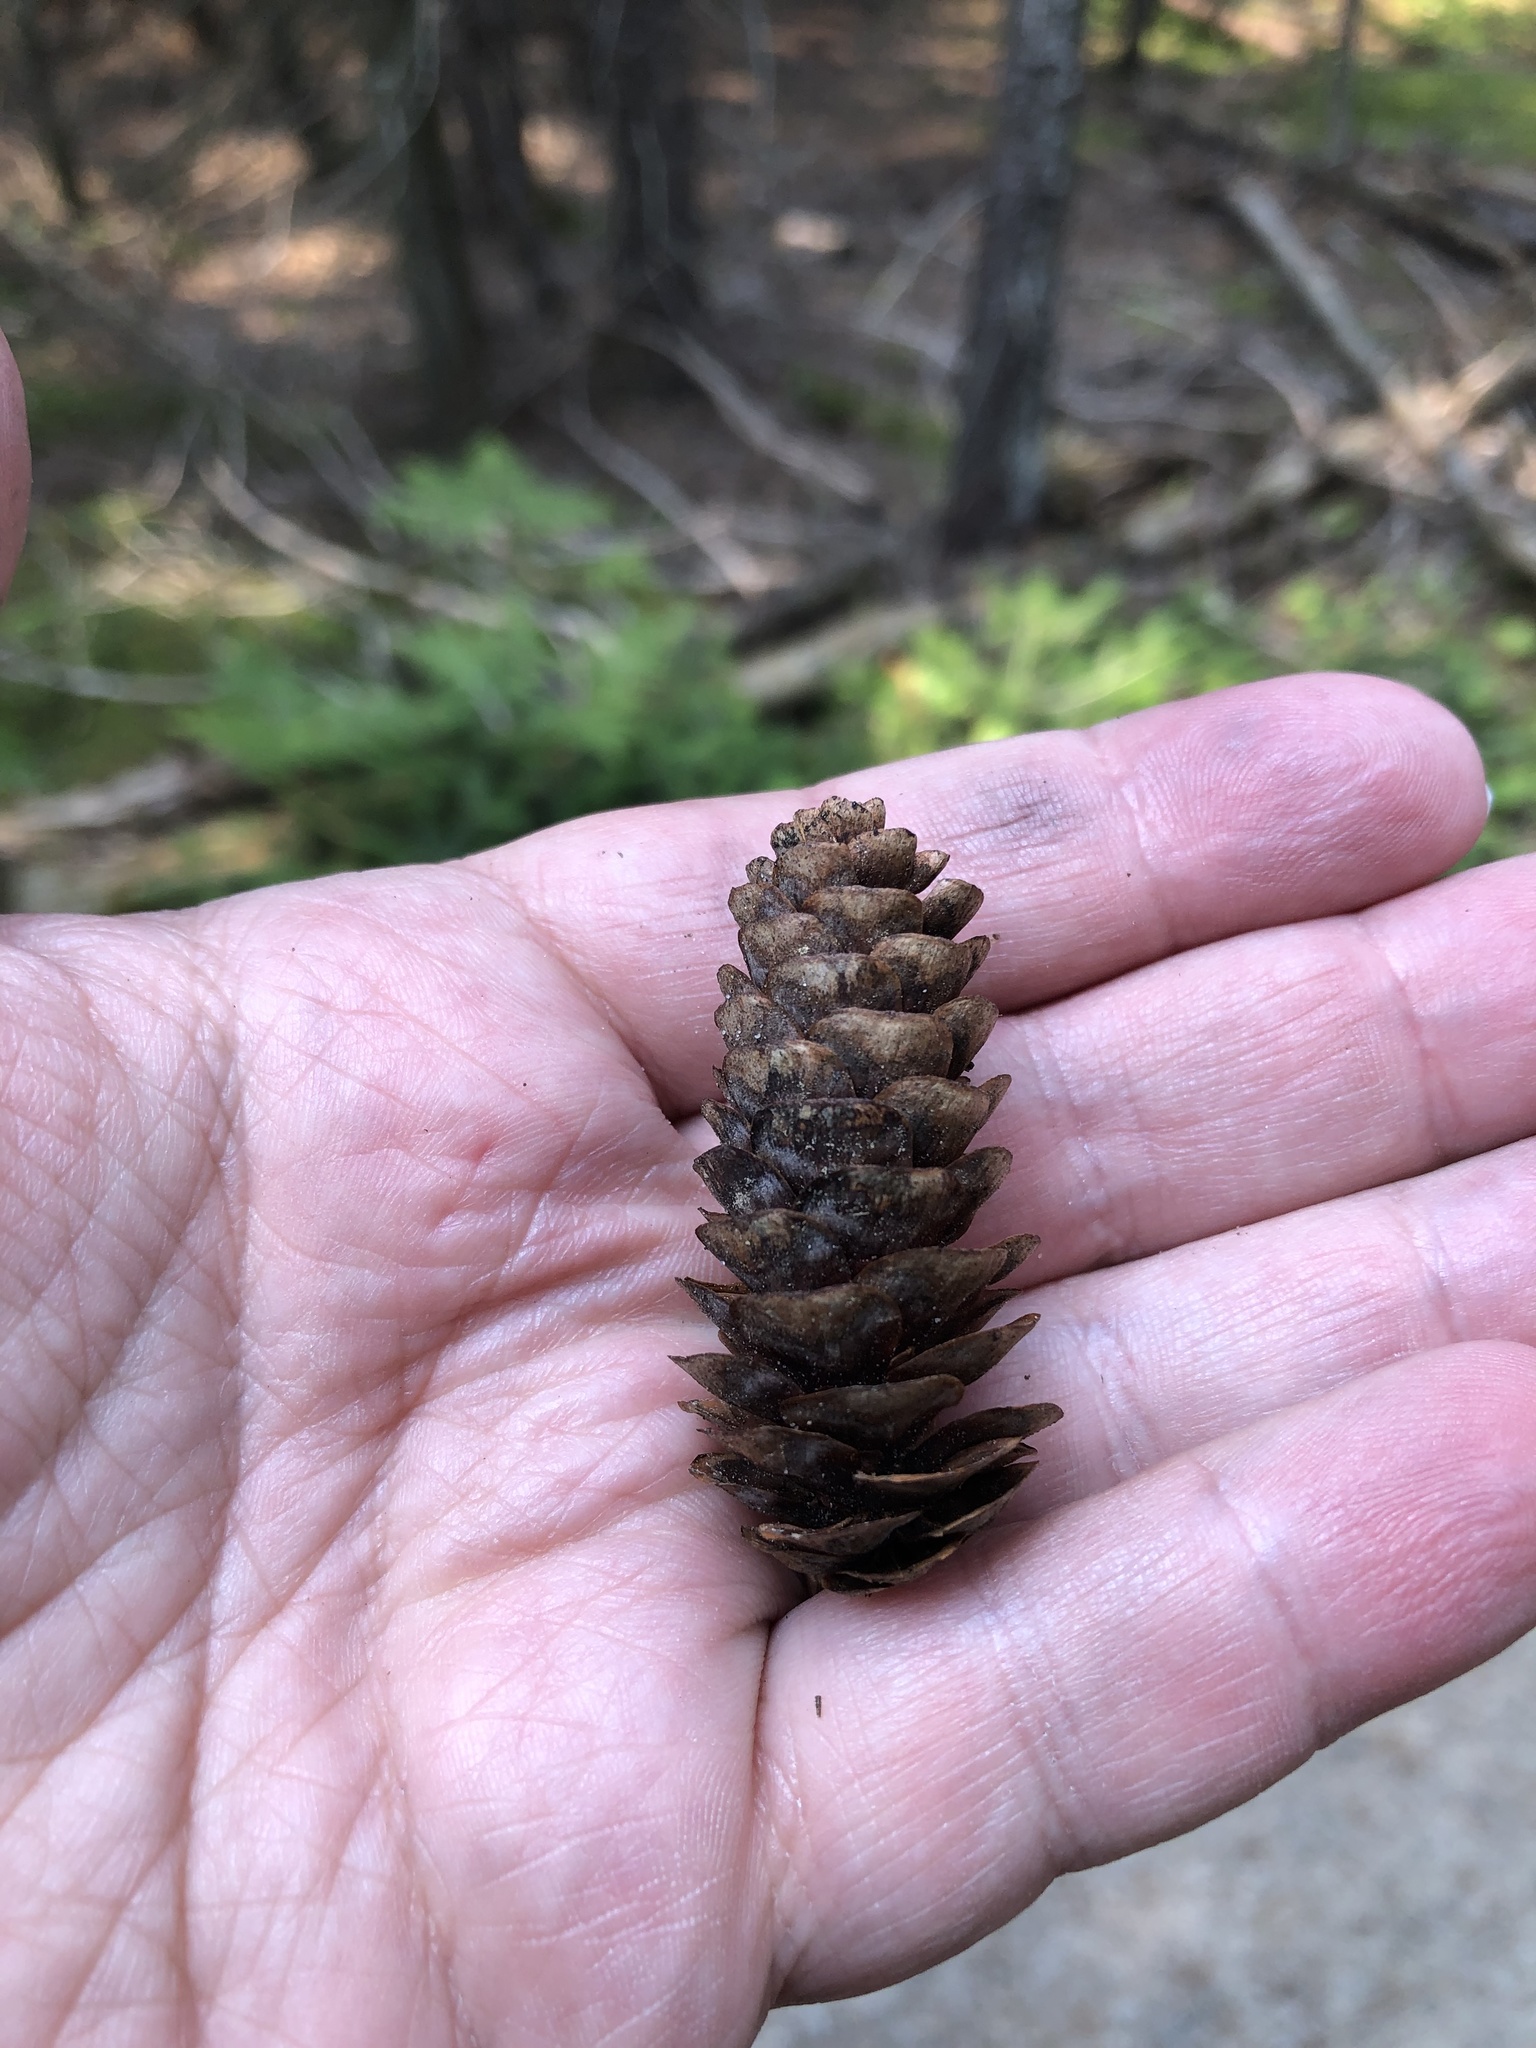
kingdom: Plantae
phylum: Tracheophyta
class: Pinopsida
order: Pinales
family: Pinaceae
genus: Picea
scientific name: Picea glauca
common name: White spruce
